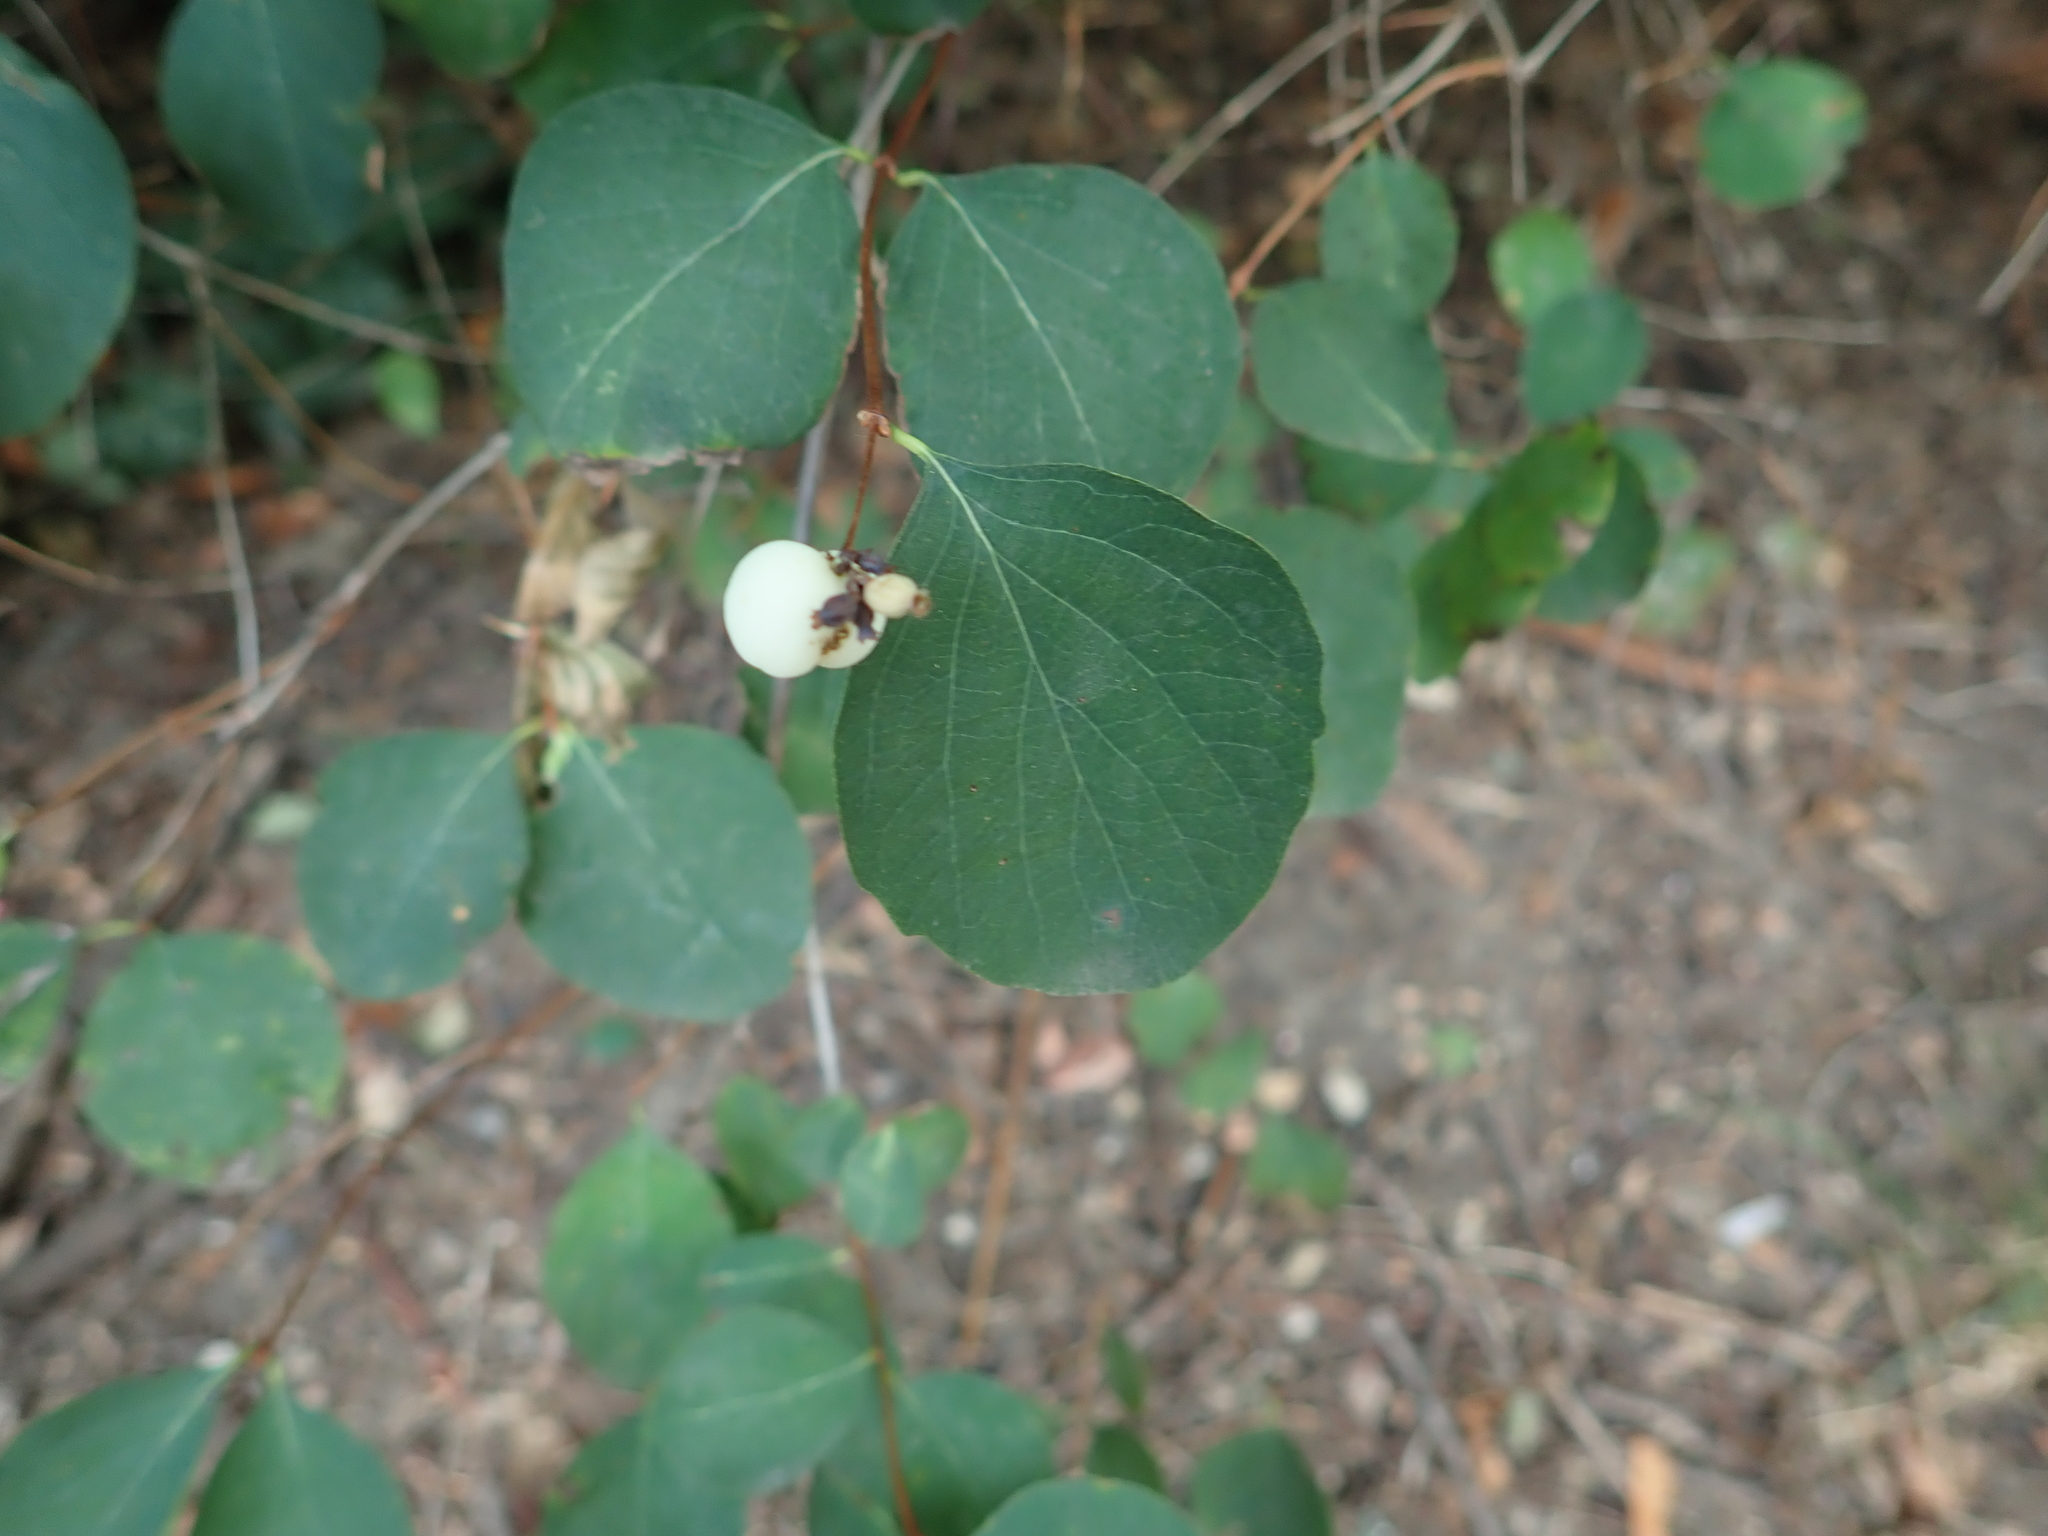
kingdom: Plantae
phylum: Tracheophyta
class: Magnoliopsida
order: Dipsacales
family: Caprifoliaceae
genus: Symphoricarpos
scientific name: Symphoricarpos albus
